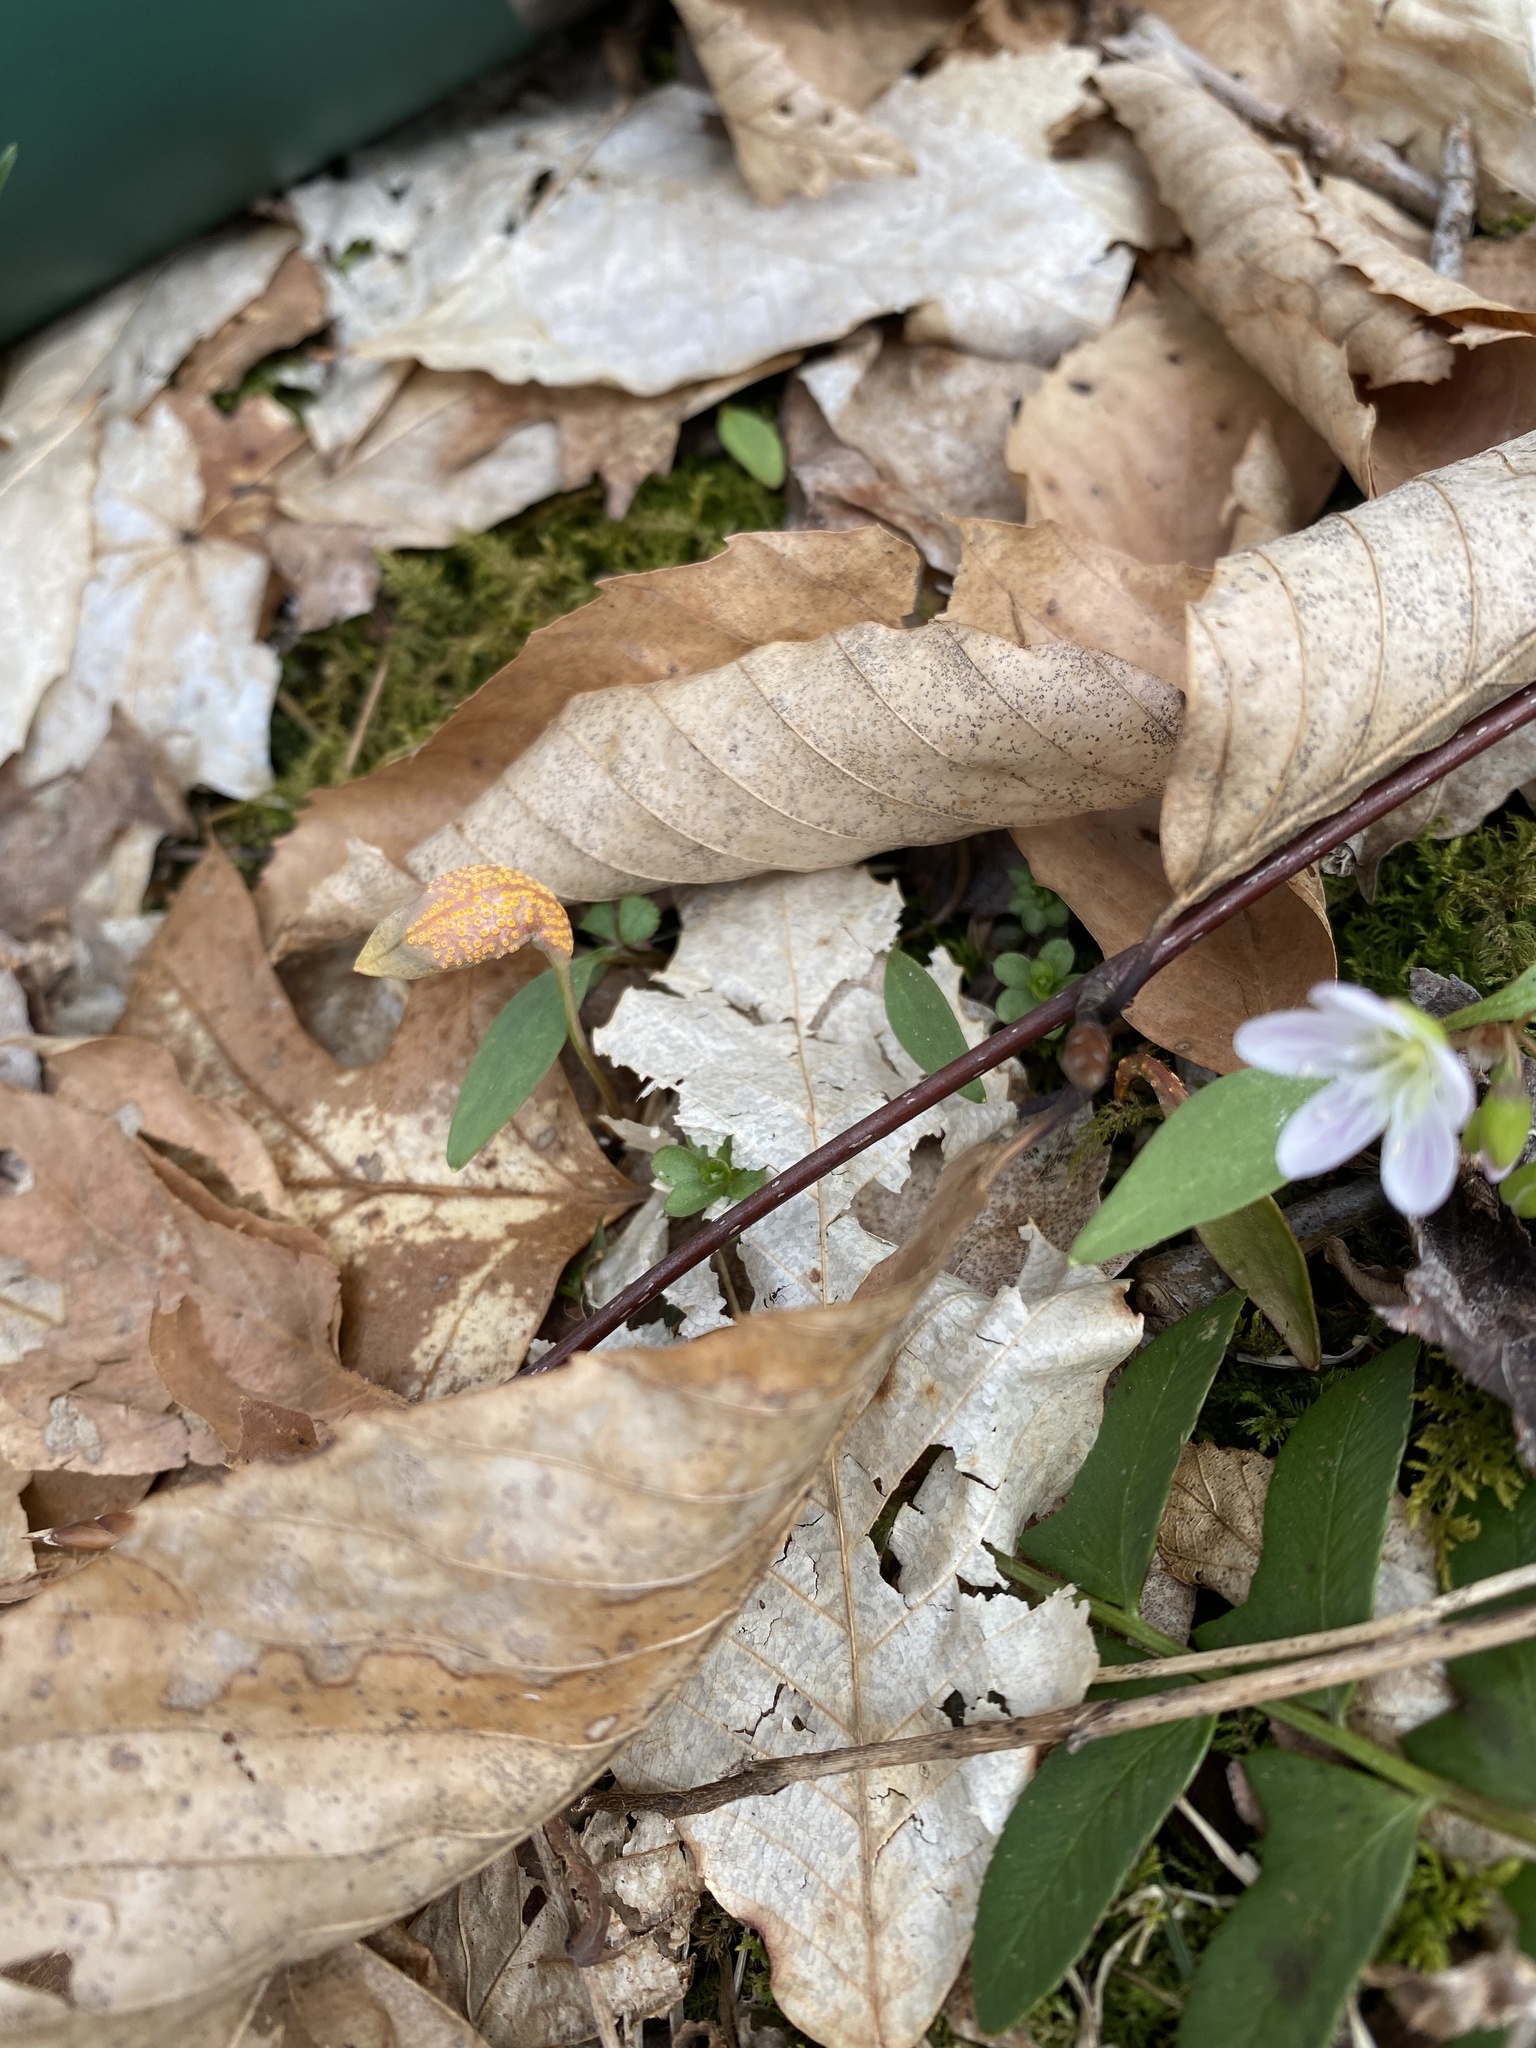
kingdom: Fungi
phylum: Basidiomycota
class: Pucciniomycetes
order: Pucciniales
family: Pucciniaceae
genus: Puccinia
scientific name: Puccinia mariae-wilsoniae
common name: Spring beauty rust
